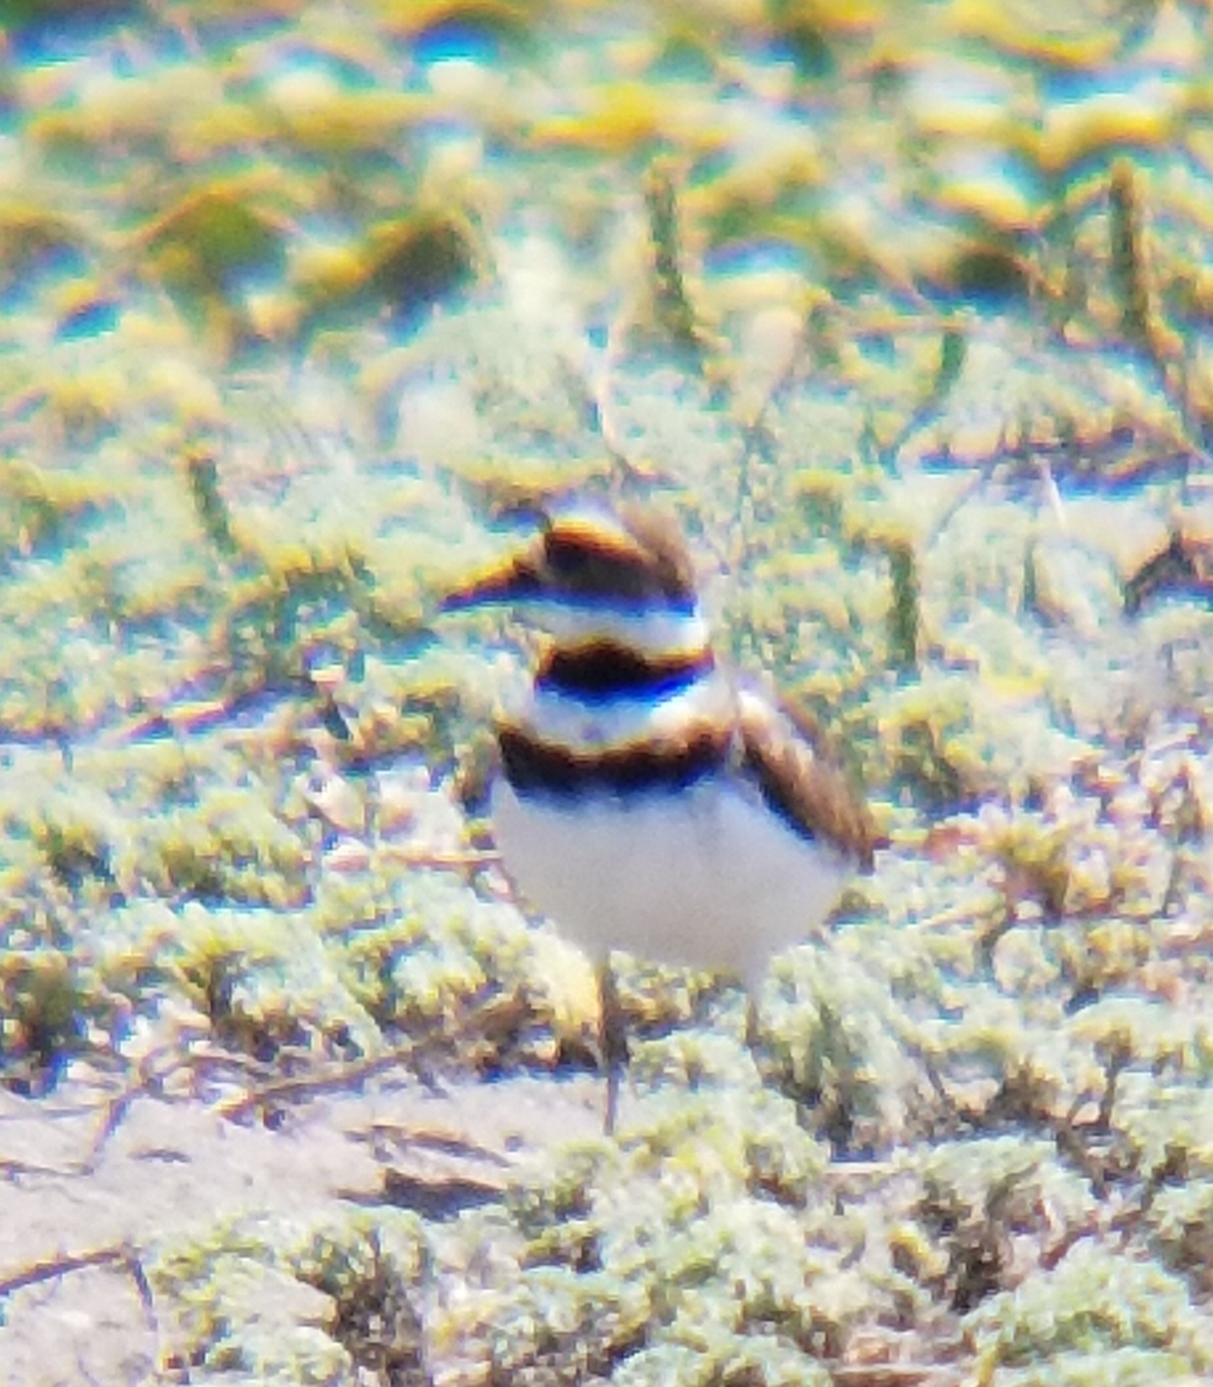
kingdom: Animalia
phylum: Chordata
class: Aves
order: Charadriiformes
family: Charadriidae
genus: Charadrius
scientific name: Charadrius vociferus
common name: Killdeer
